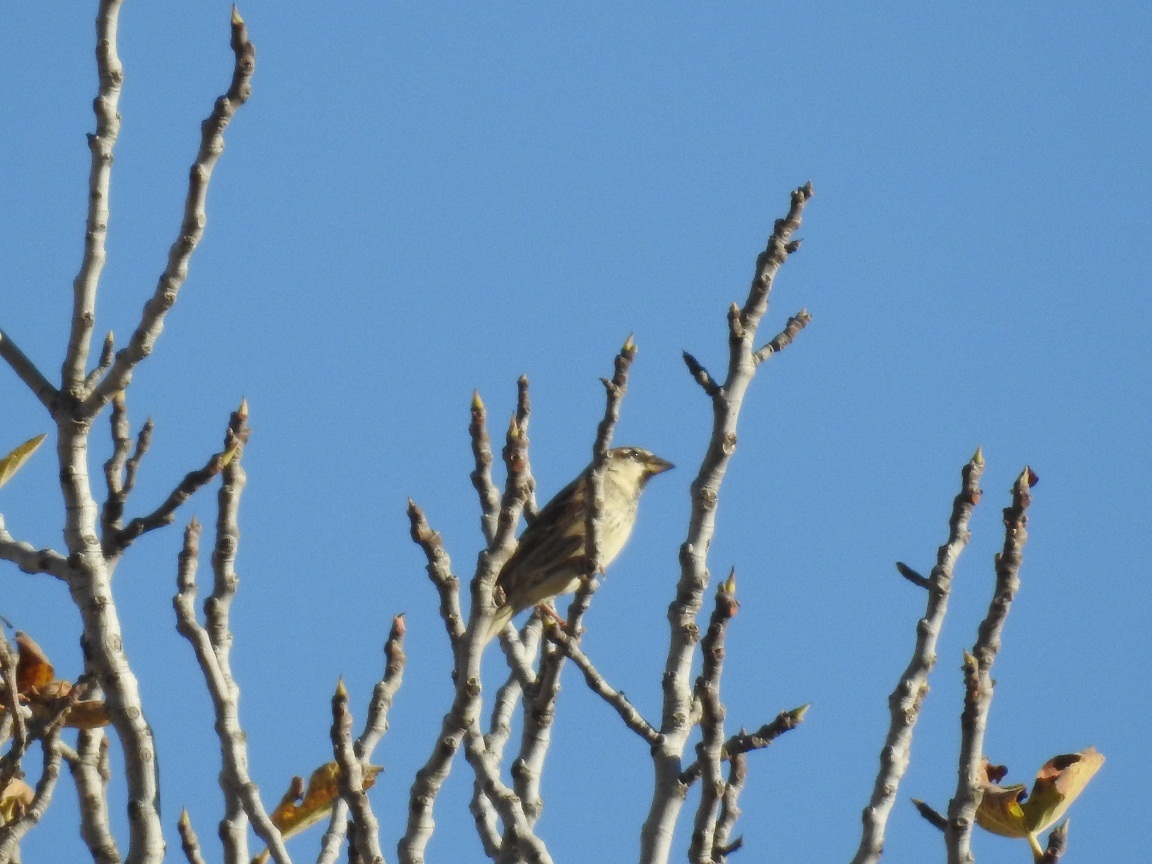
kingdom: Animalia
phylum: Chordata
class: Aves
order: Passeriformes
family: Passeridae
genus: Passer
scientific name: Passer hispaniolensis
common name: Spanish sparrow
